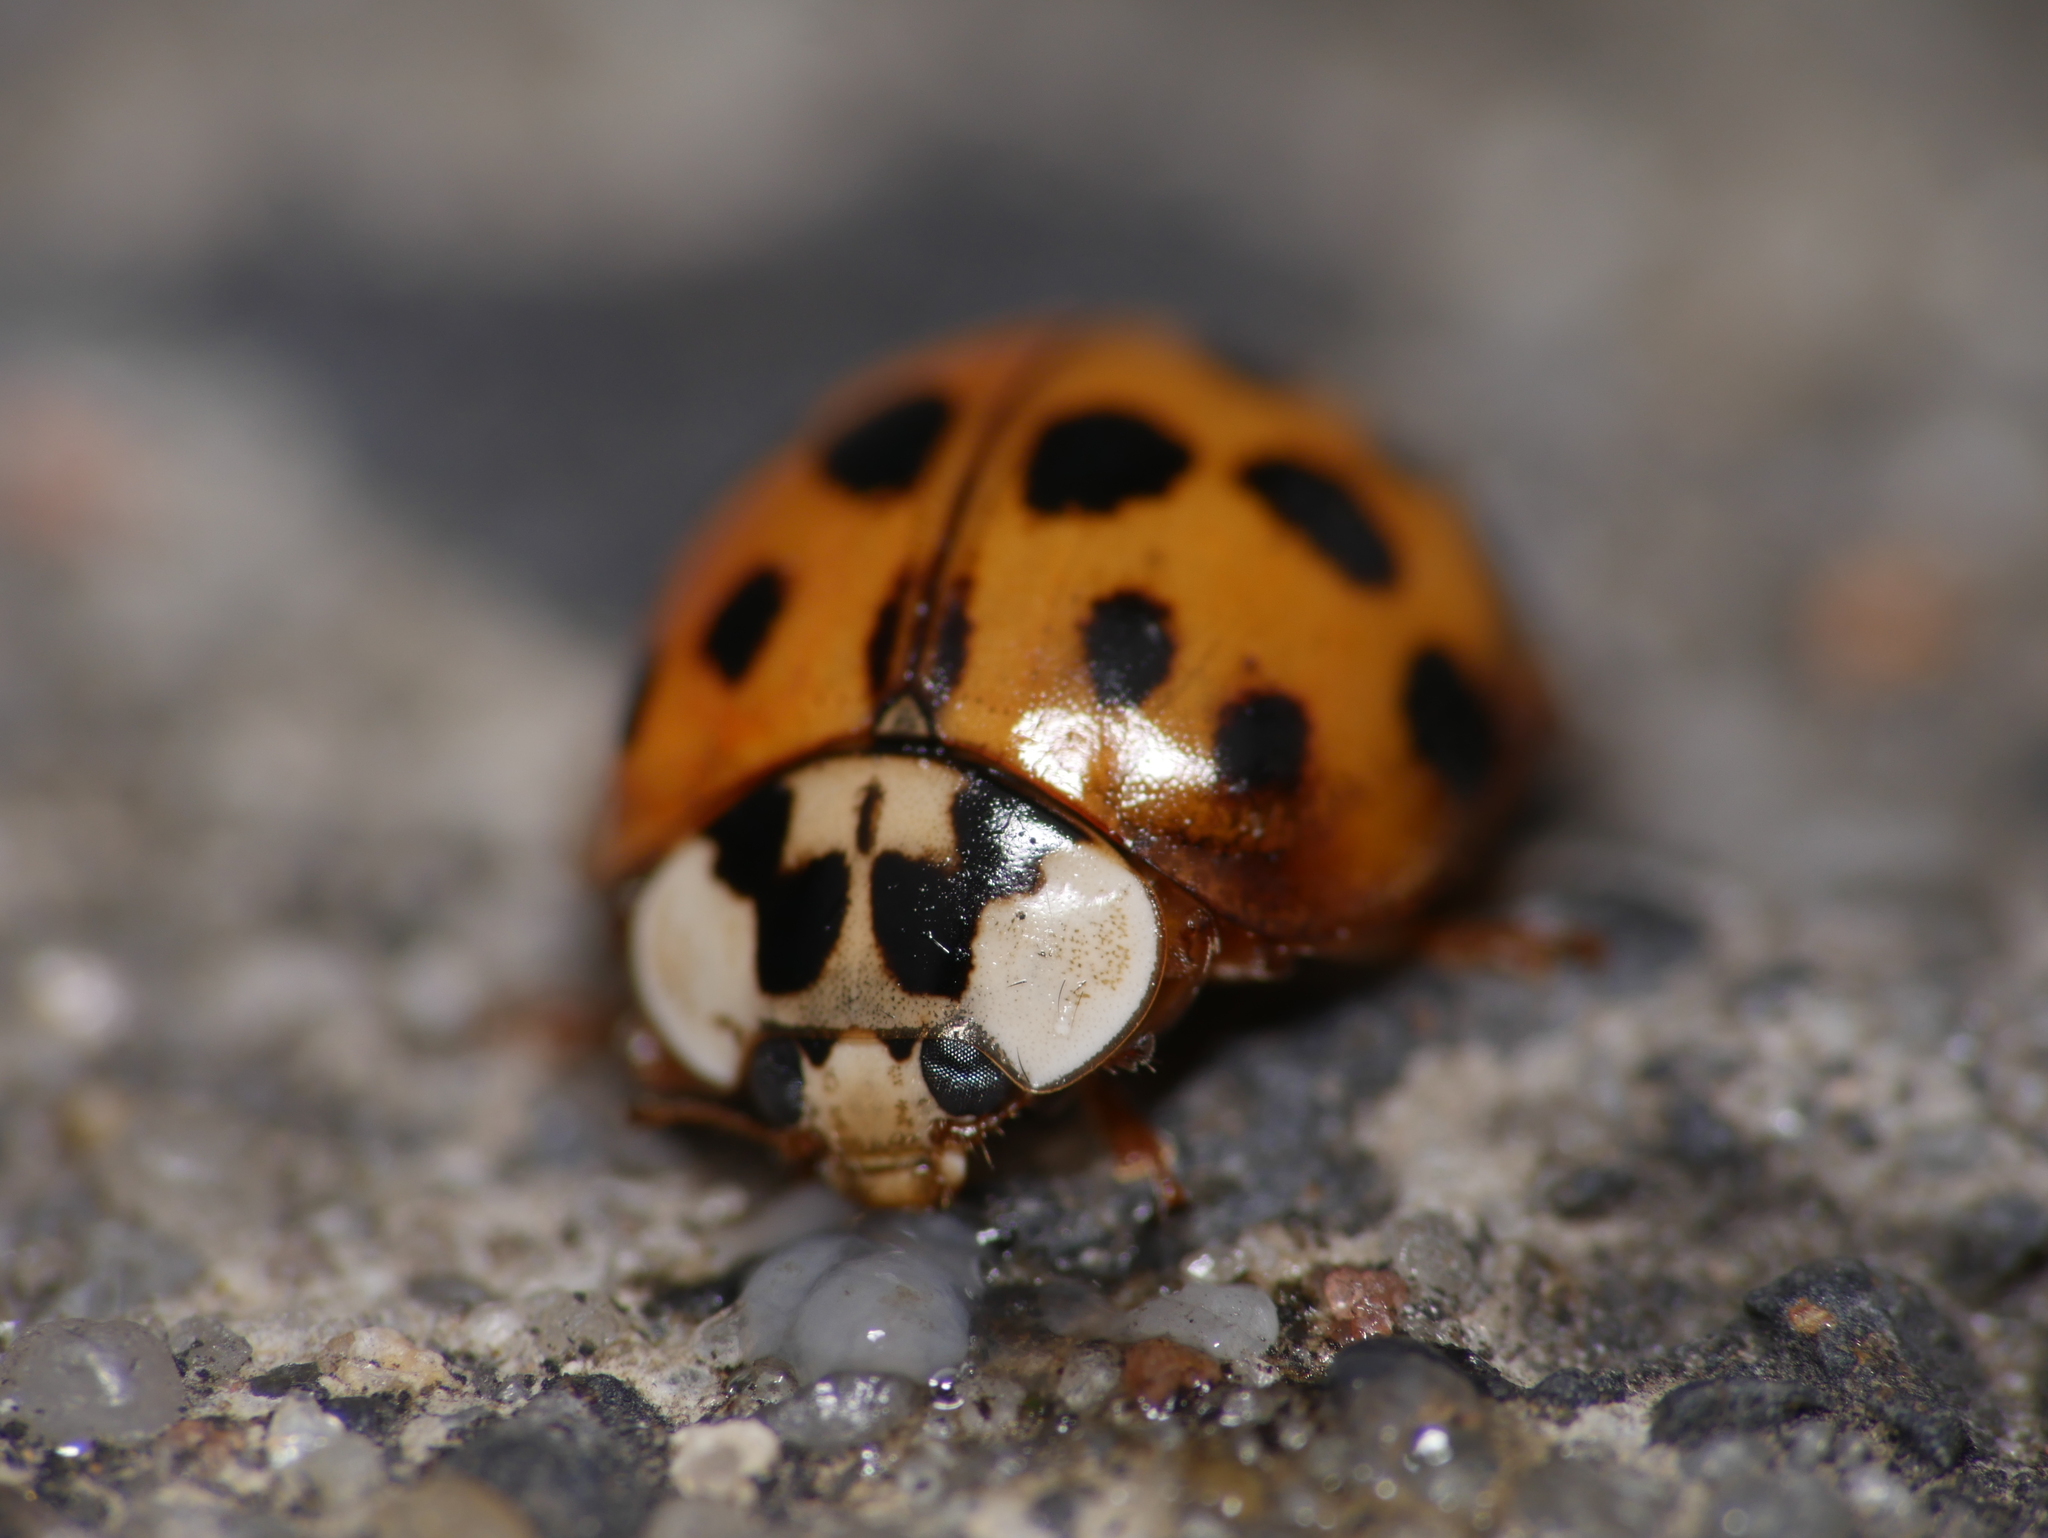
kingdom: Animalia
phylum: Arthropoda
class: Insecta
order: Coleoptera
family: Coccinellidae
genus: Harmonia
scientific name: Harmonia axyridis
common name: Harlequin ladybird
